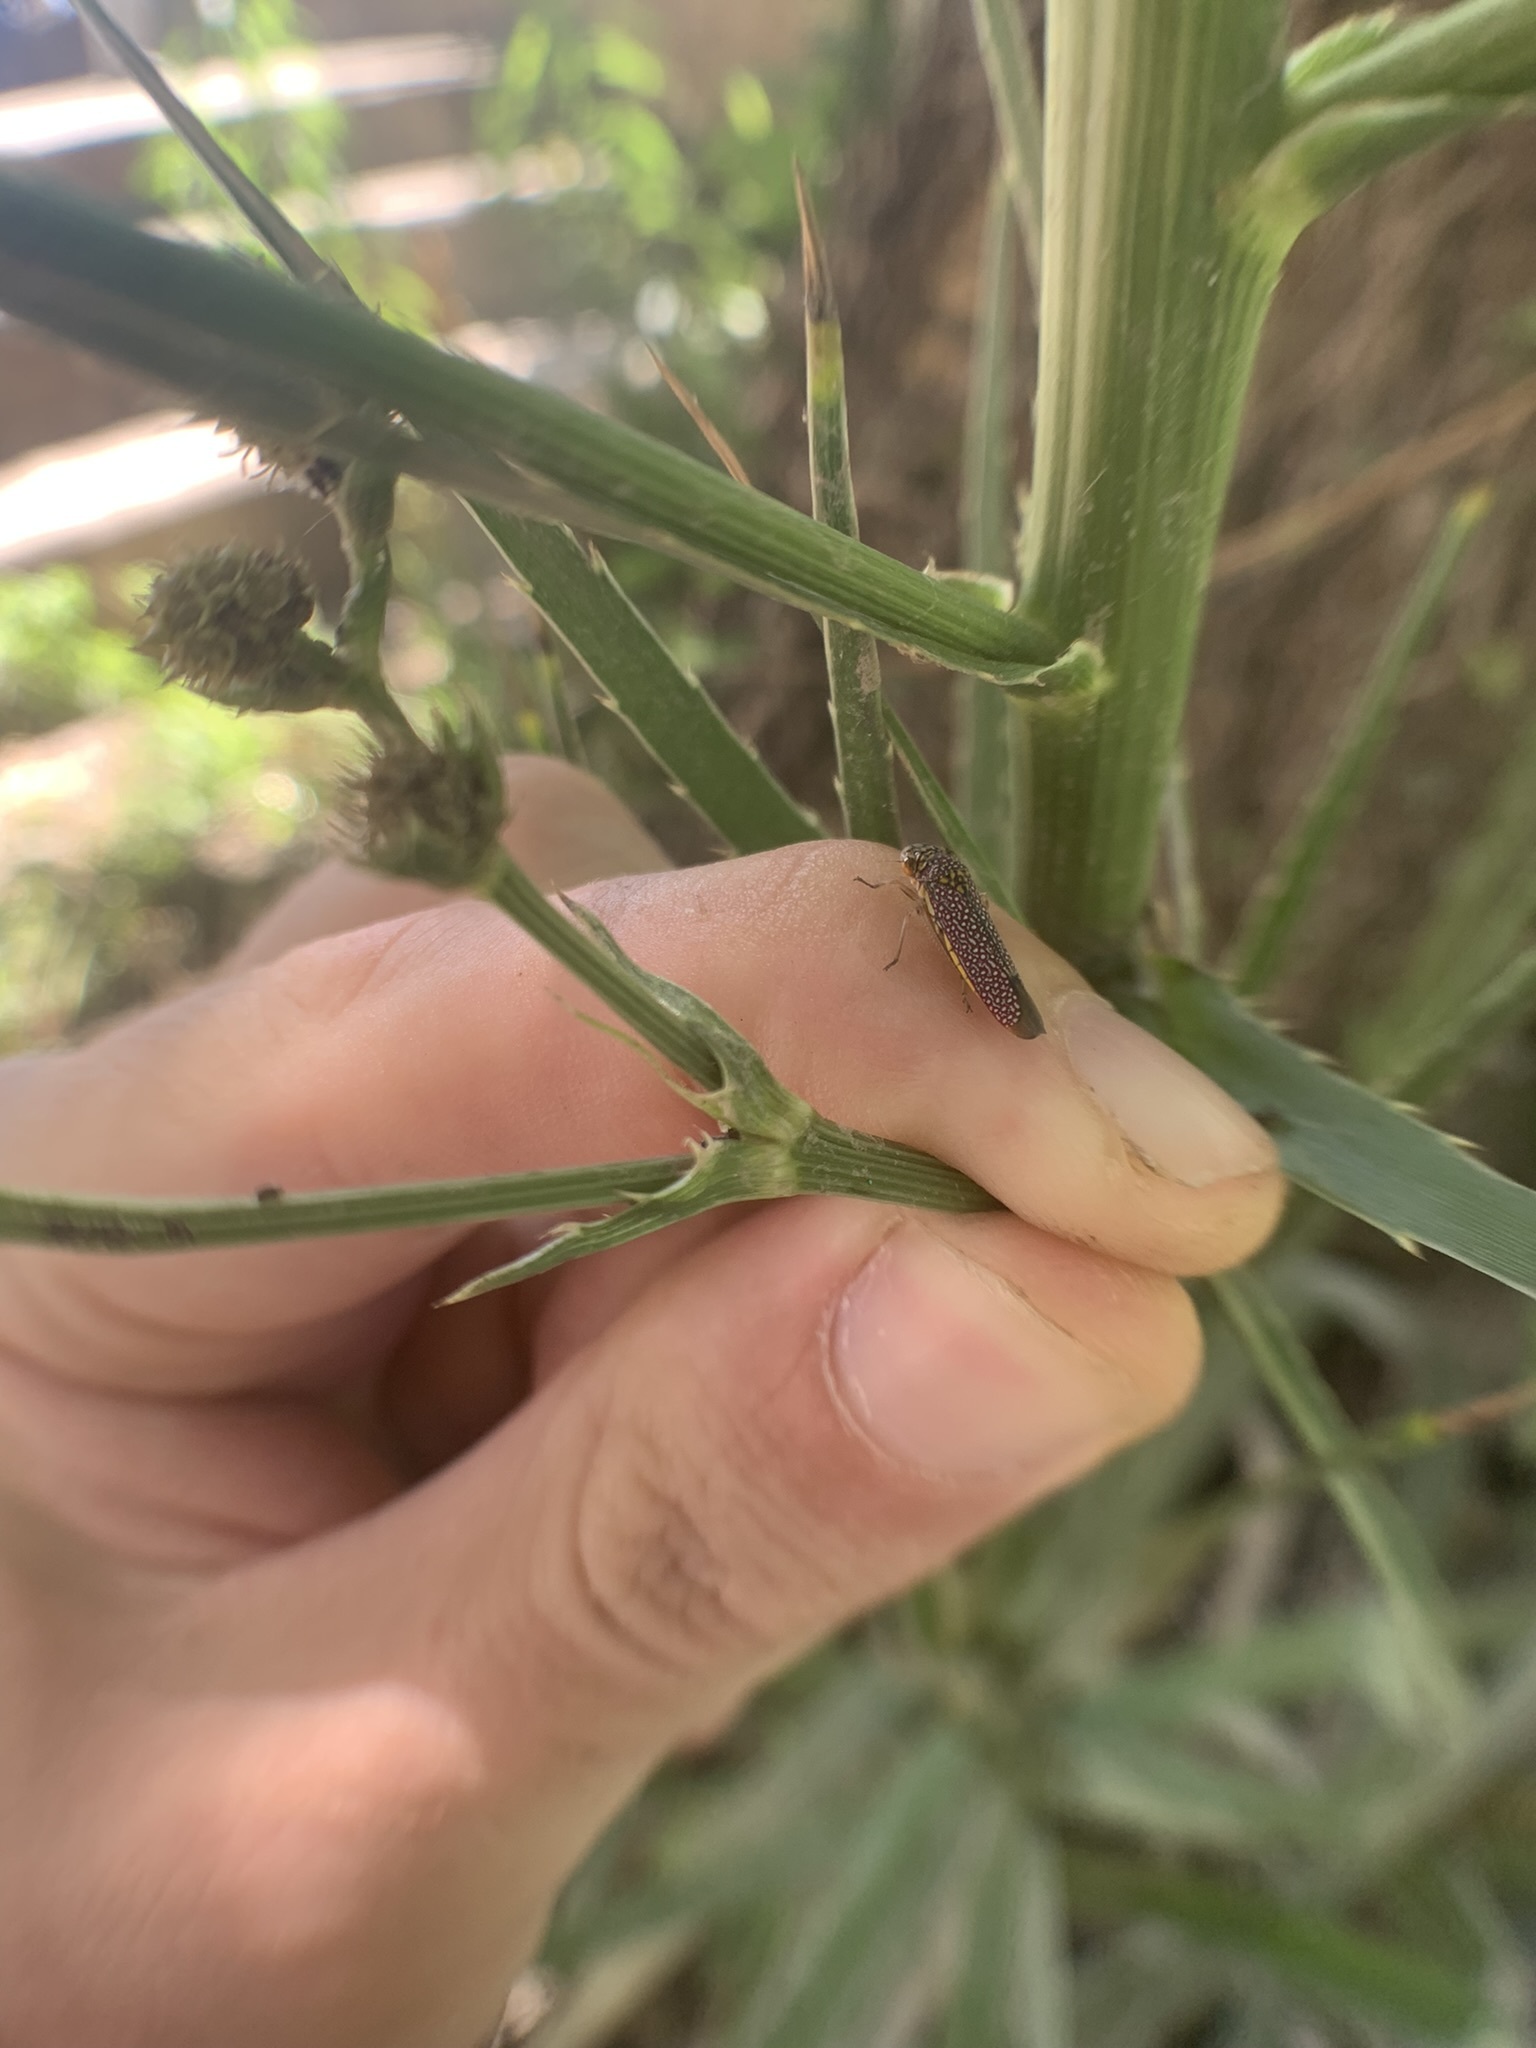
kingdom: Animalia
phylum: Arthropoda
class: Insecta
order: Hemiptera
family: Cicadellidae
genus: Pawiloma
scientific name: Pawiloma victima
